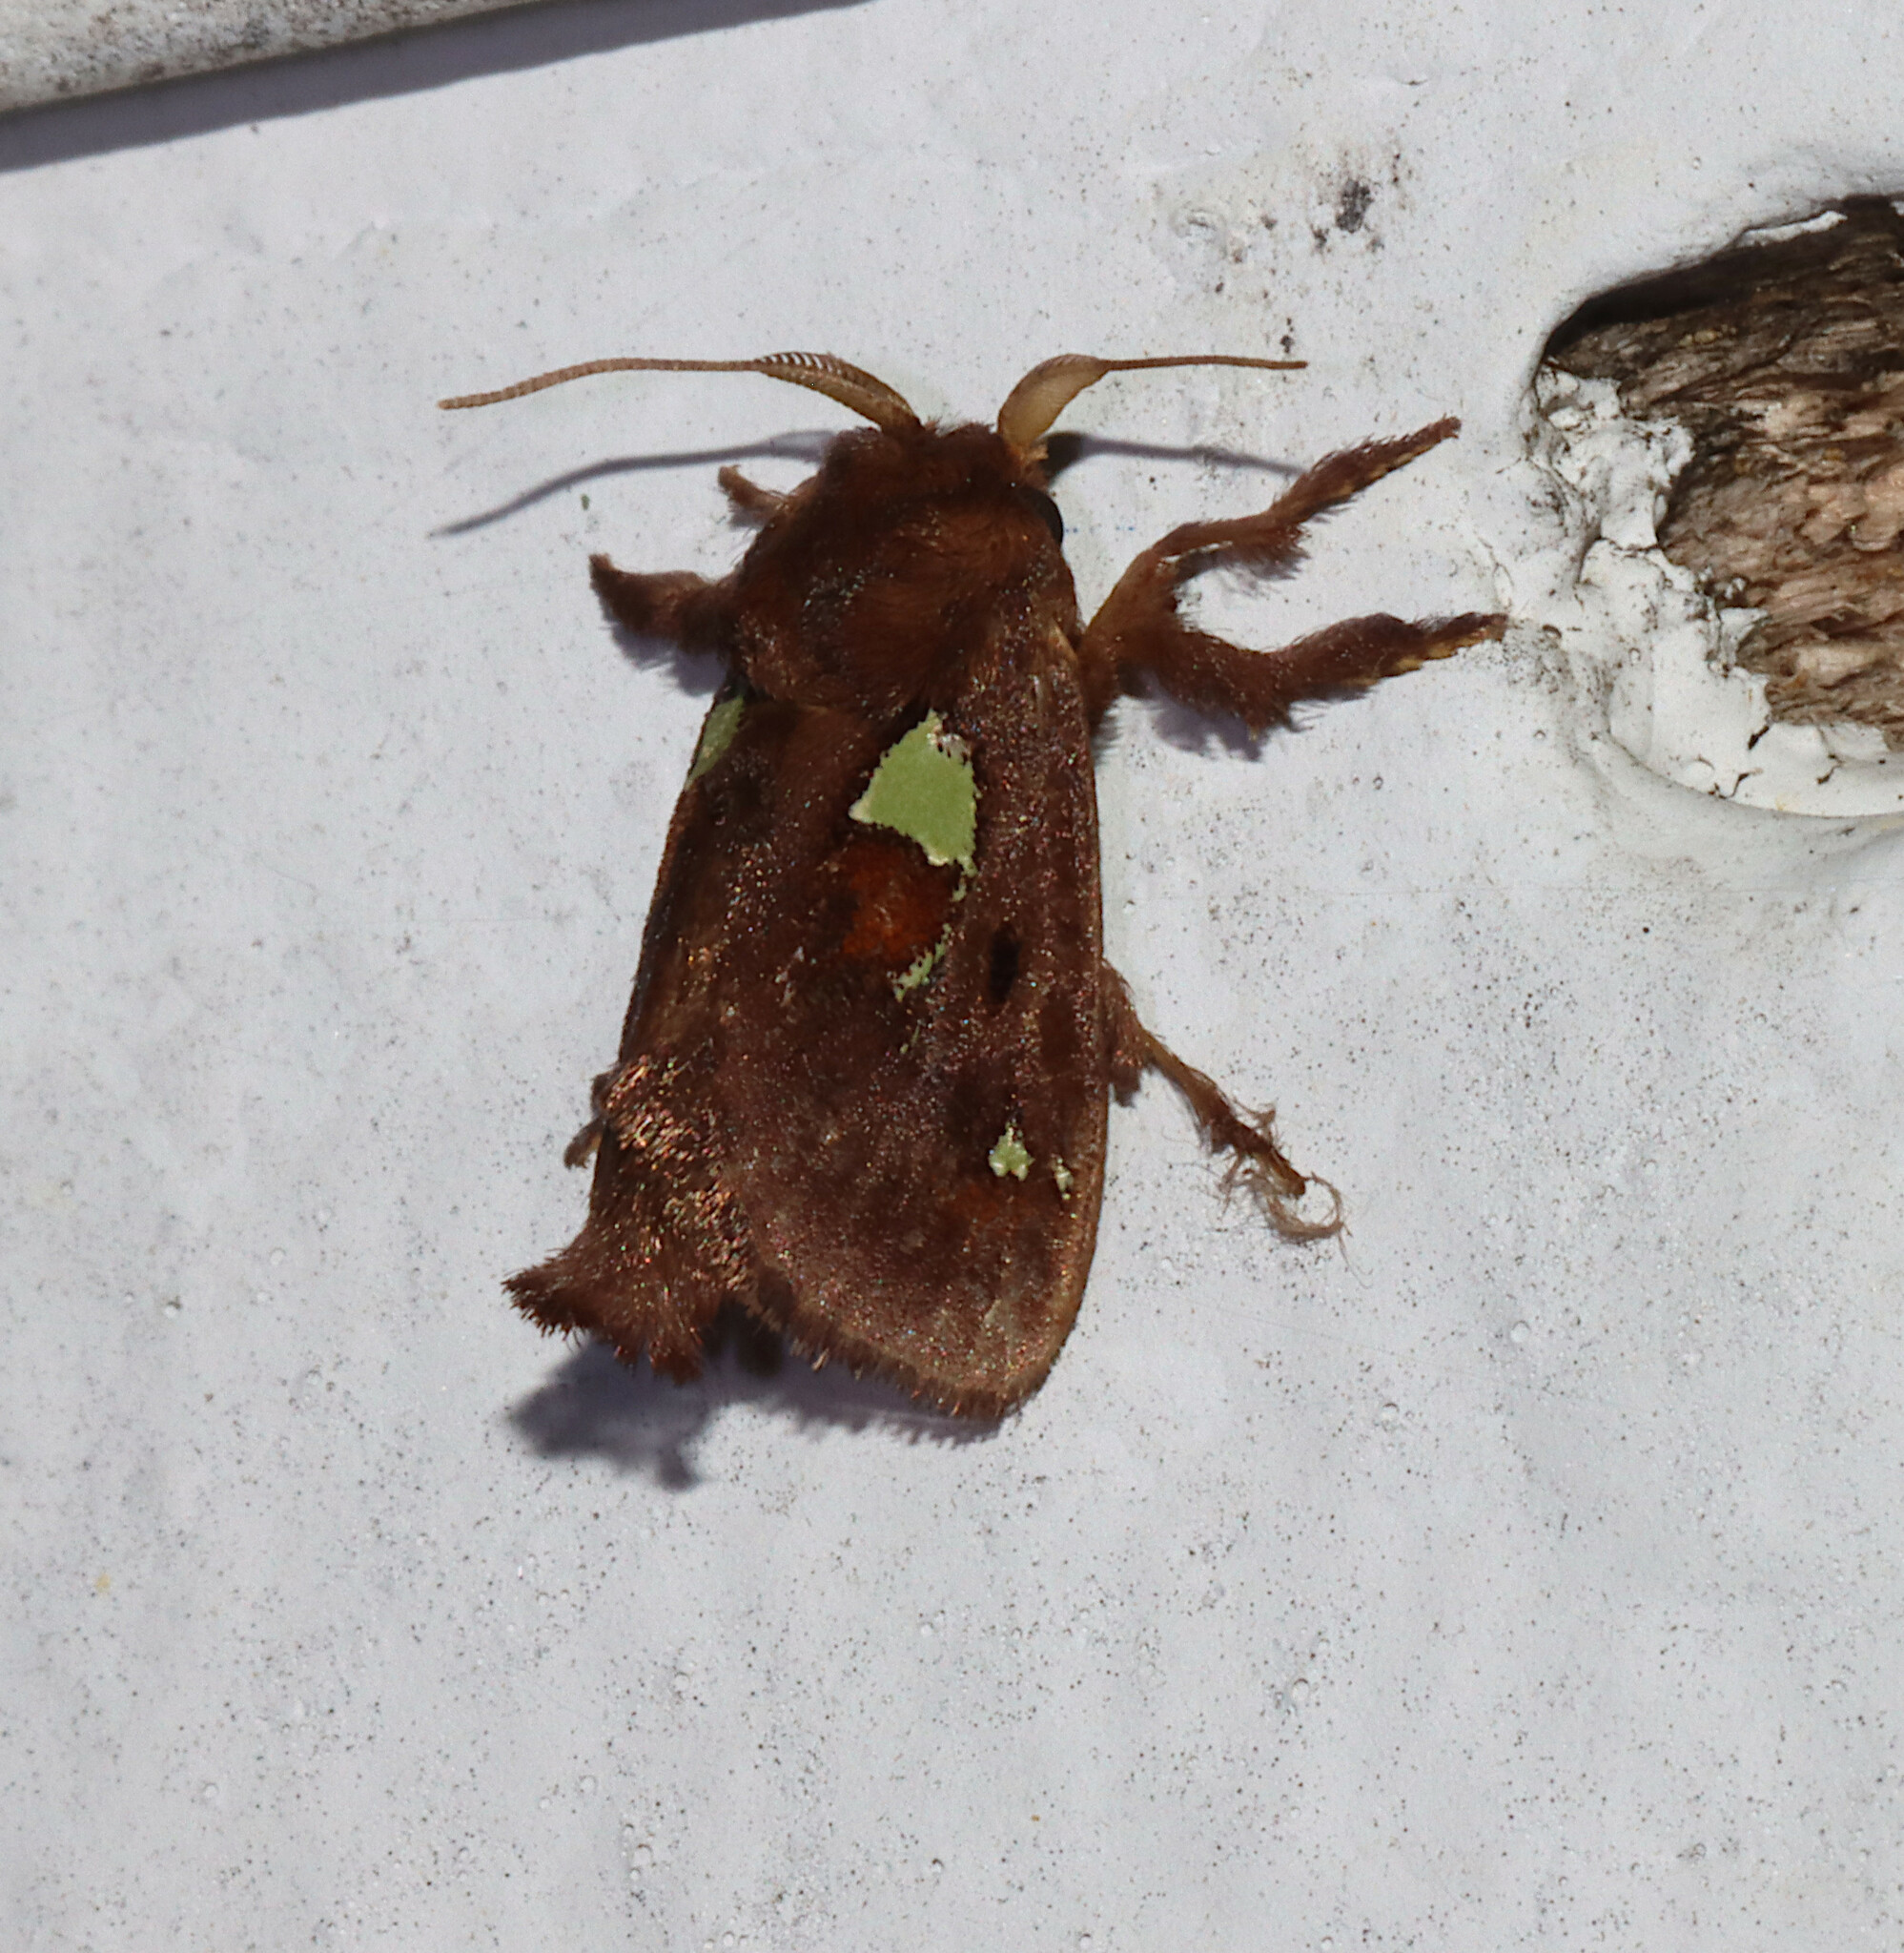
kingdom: Animalia
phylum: Arthropoda
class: Insecta
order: Lepidoptera
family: Limacodidae
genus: Euclea
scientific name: Euclea delphinii
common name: Spiny oak-slug moth
